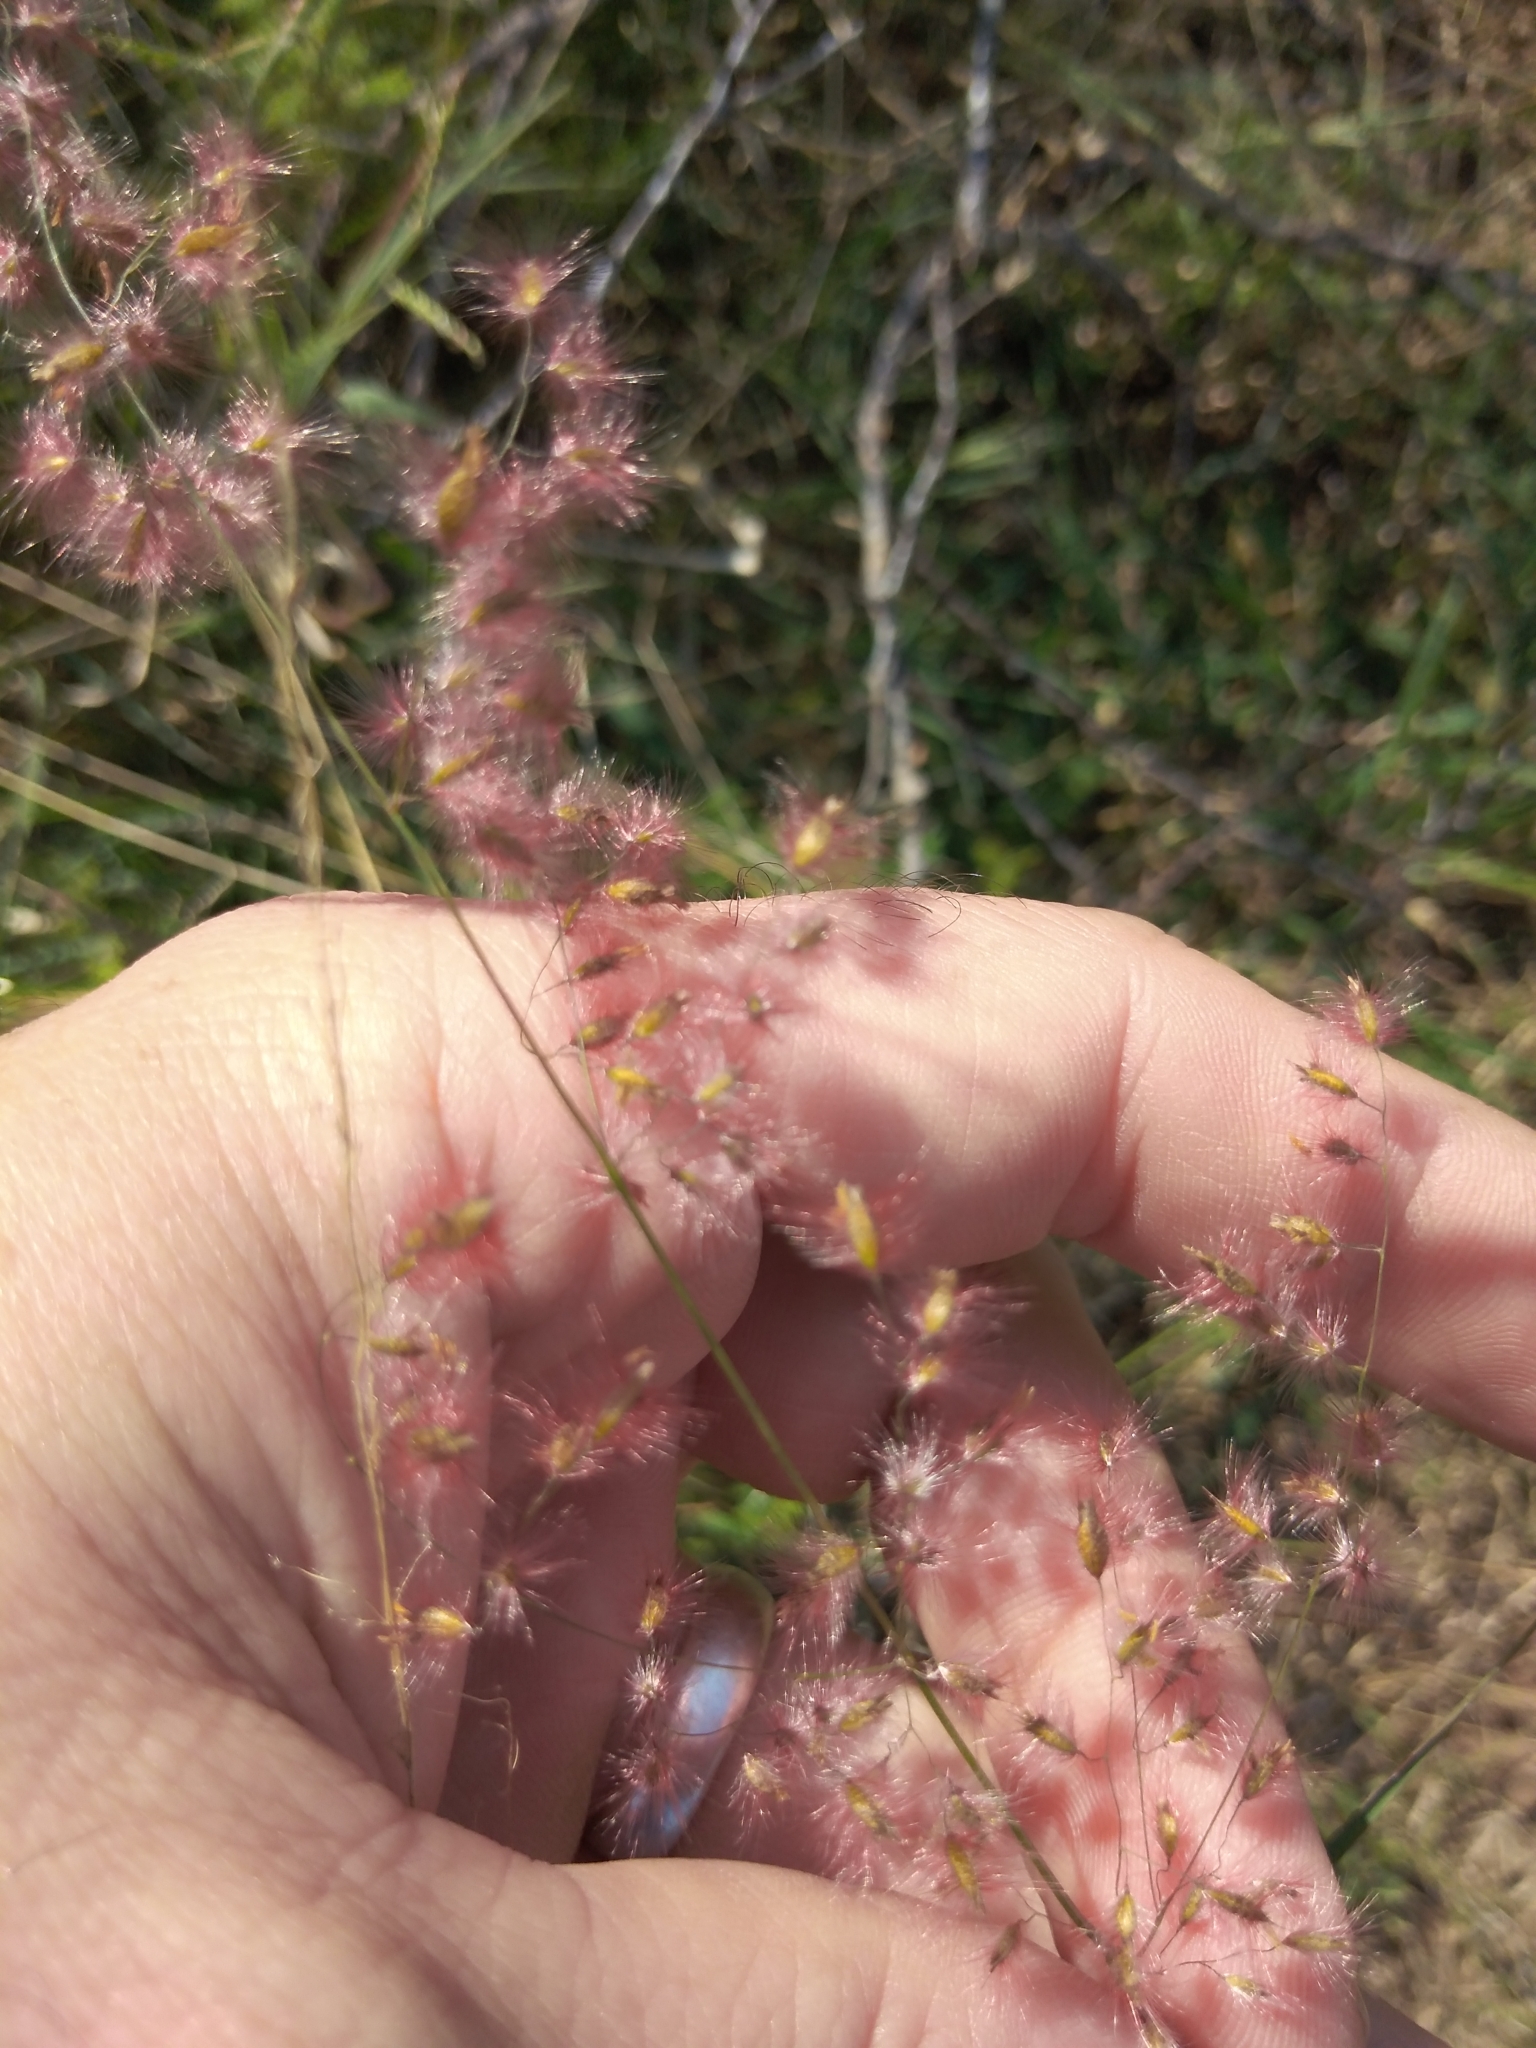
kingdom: Plantae
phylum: Tracheophyta
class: Liliopsida
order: Poales
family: Poaceae
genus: Melinis
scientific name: Melinis repens
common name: Rose natal grass
